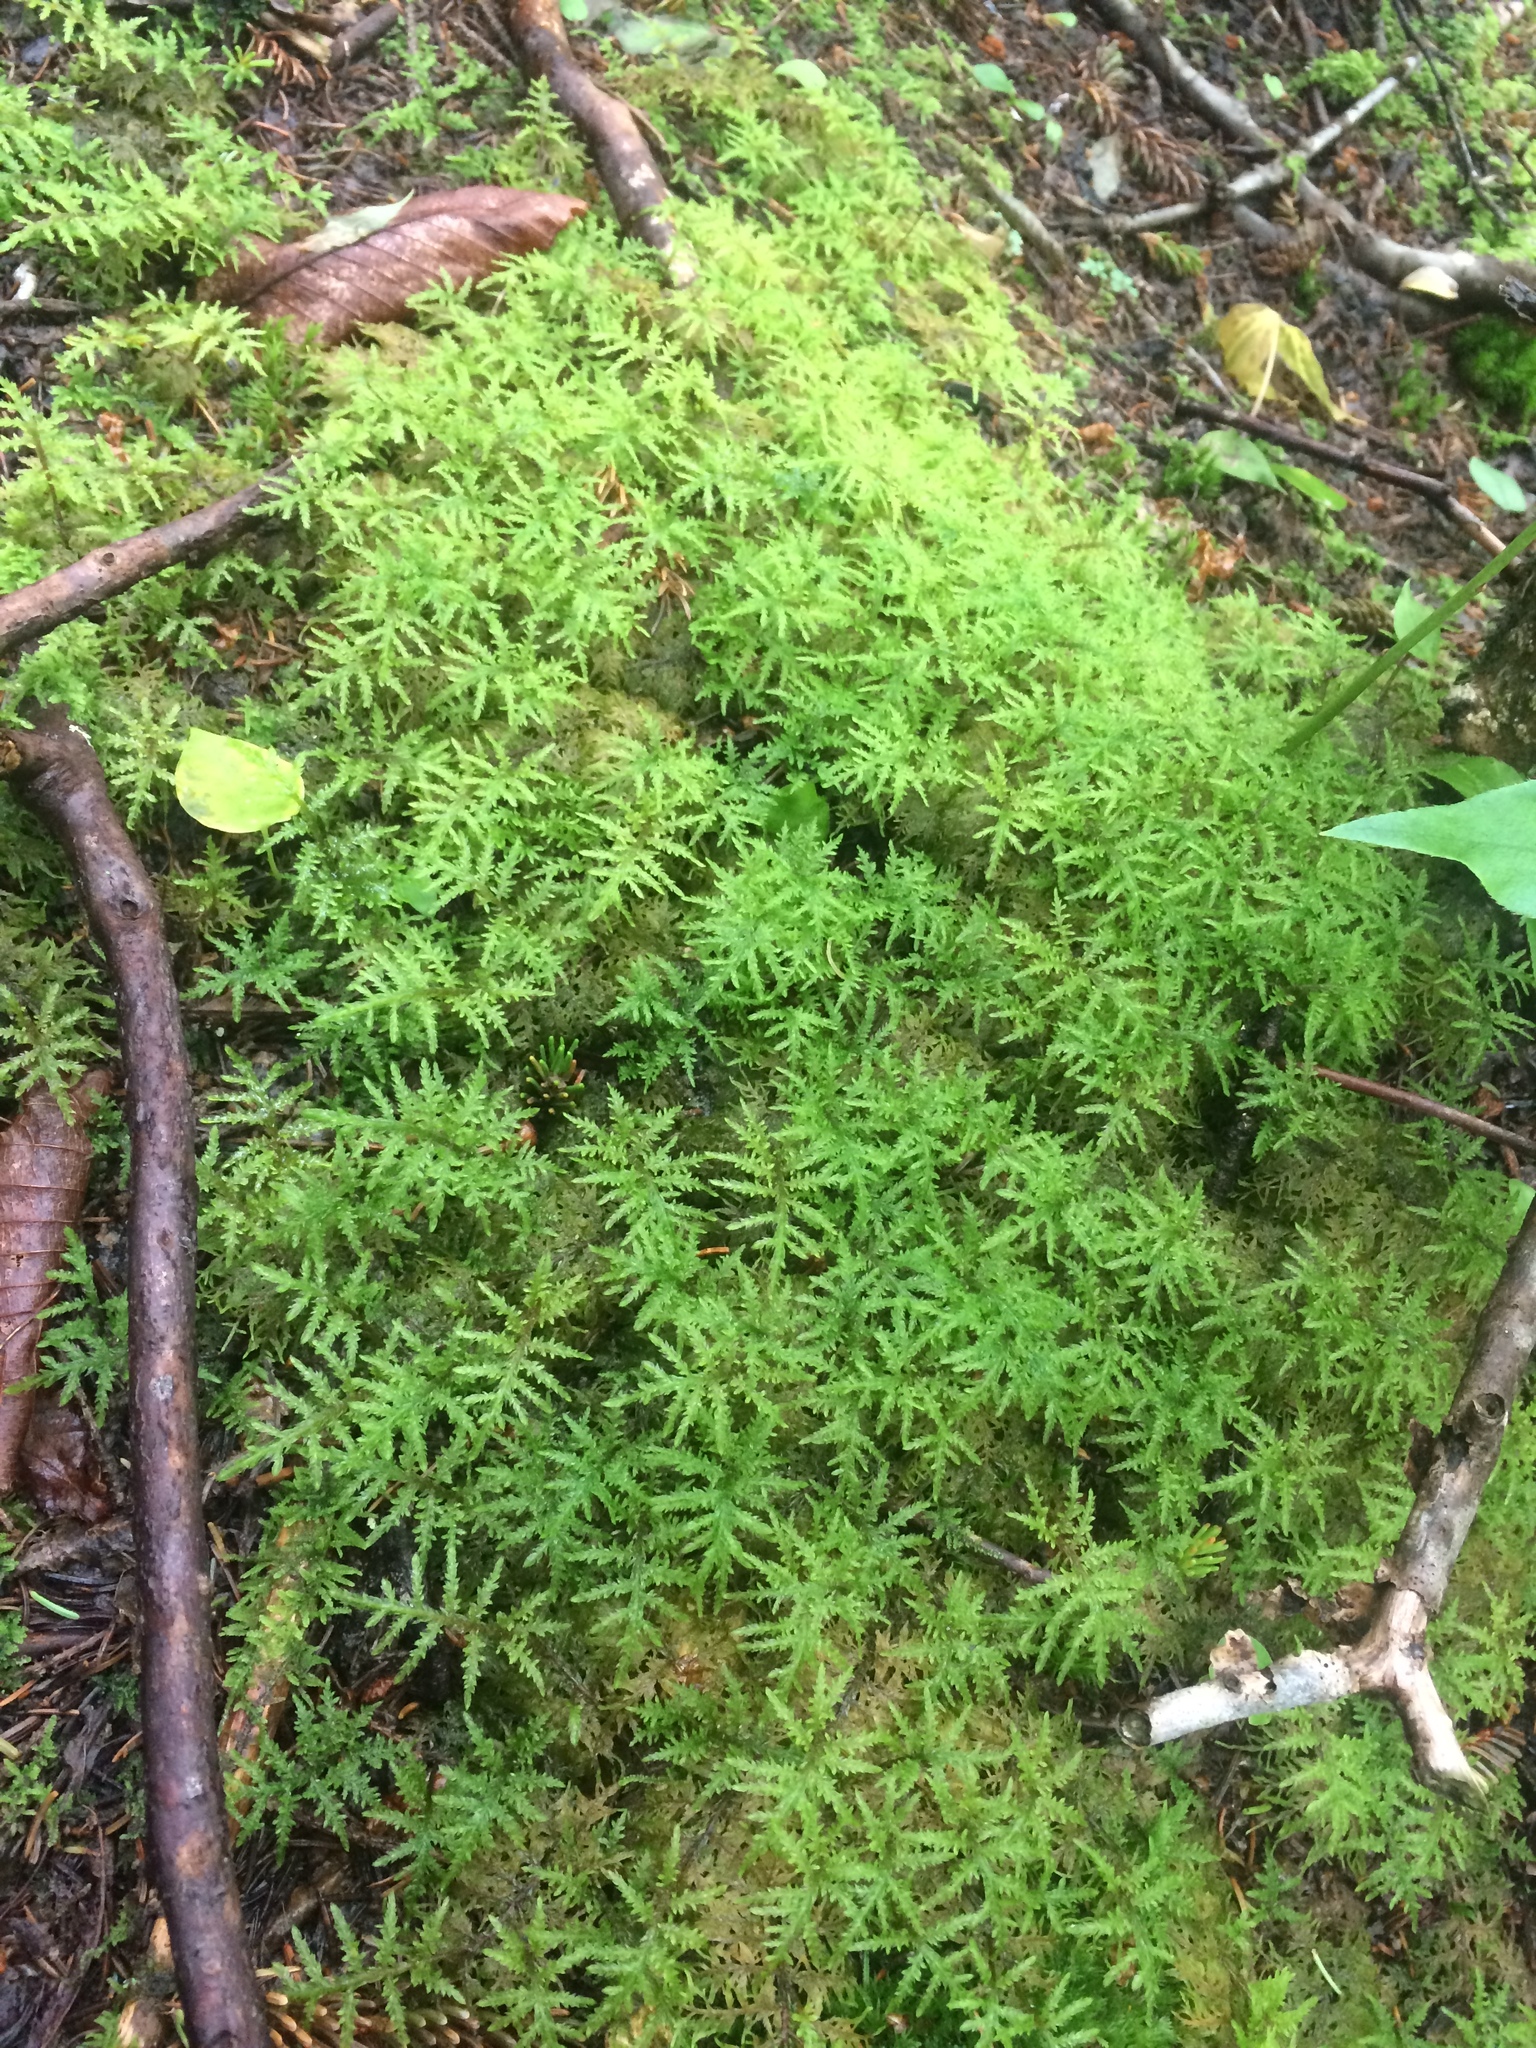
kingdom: Plantae
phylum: Bryophyta
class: Bryopsida
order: Hypnales
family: Hylocomiaceae
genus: Hylocomium
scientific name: Hylocomium splendens
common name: Stairstep moss
